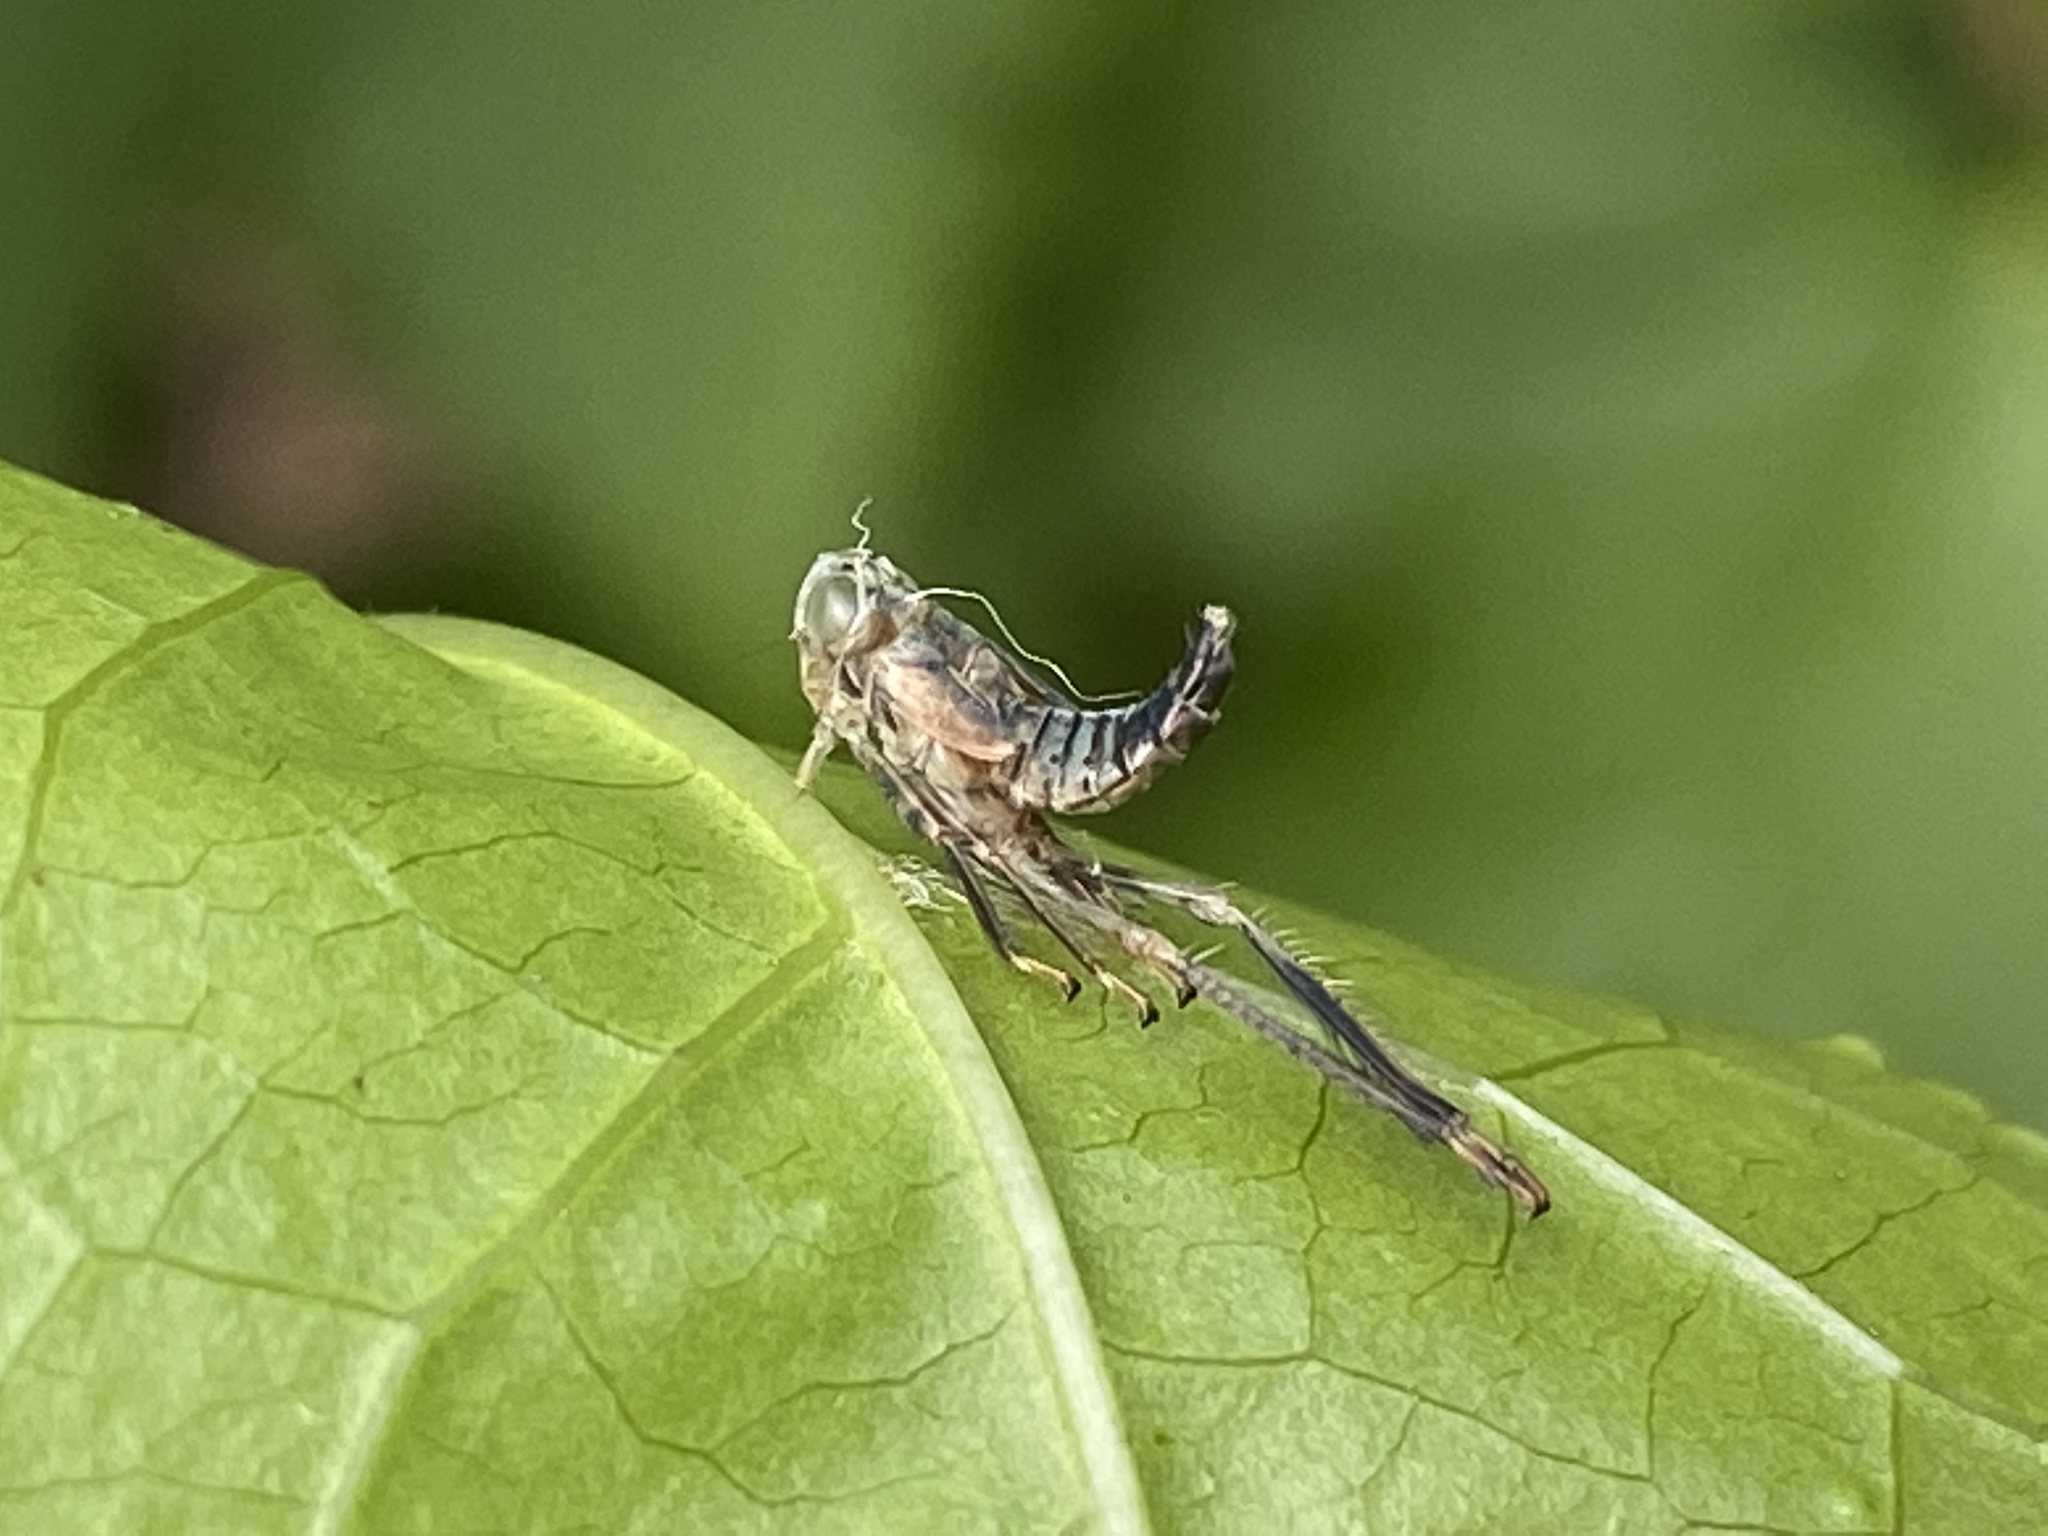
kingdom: Animalia
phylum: Arthropoda
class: Insecta
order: Hemiptera
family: Cicadellidae
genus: Jikradia
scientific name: Jikradia olitoria
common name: Coppery leafhopper
